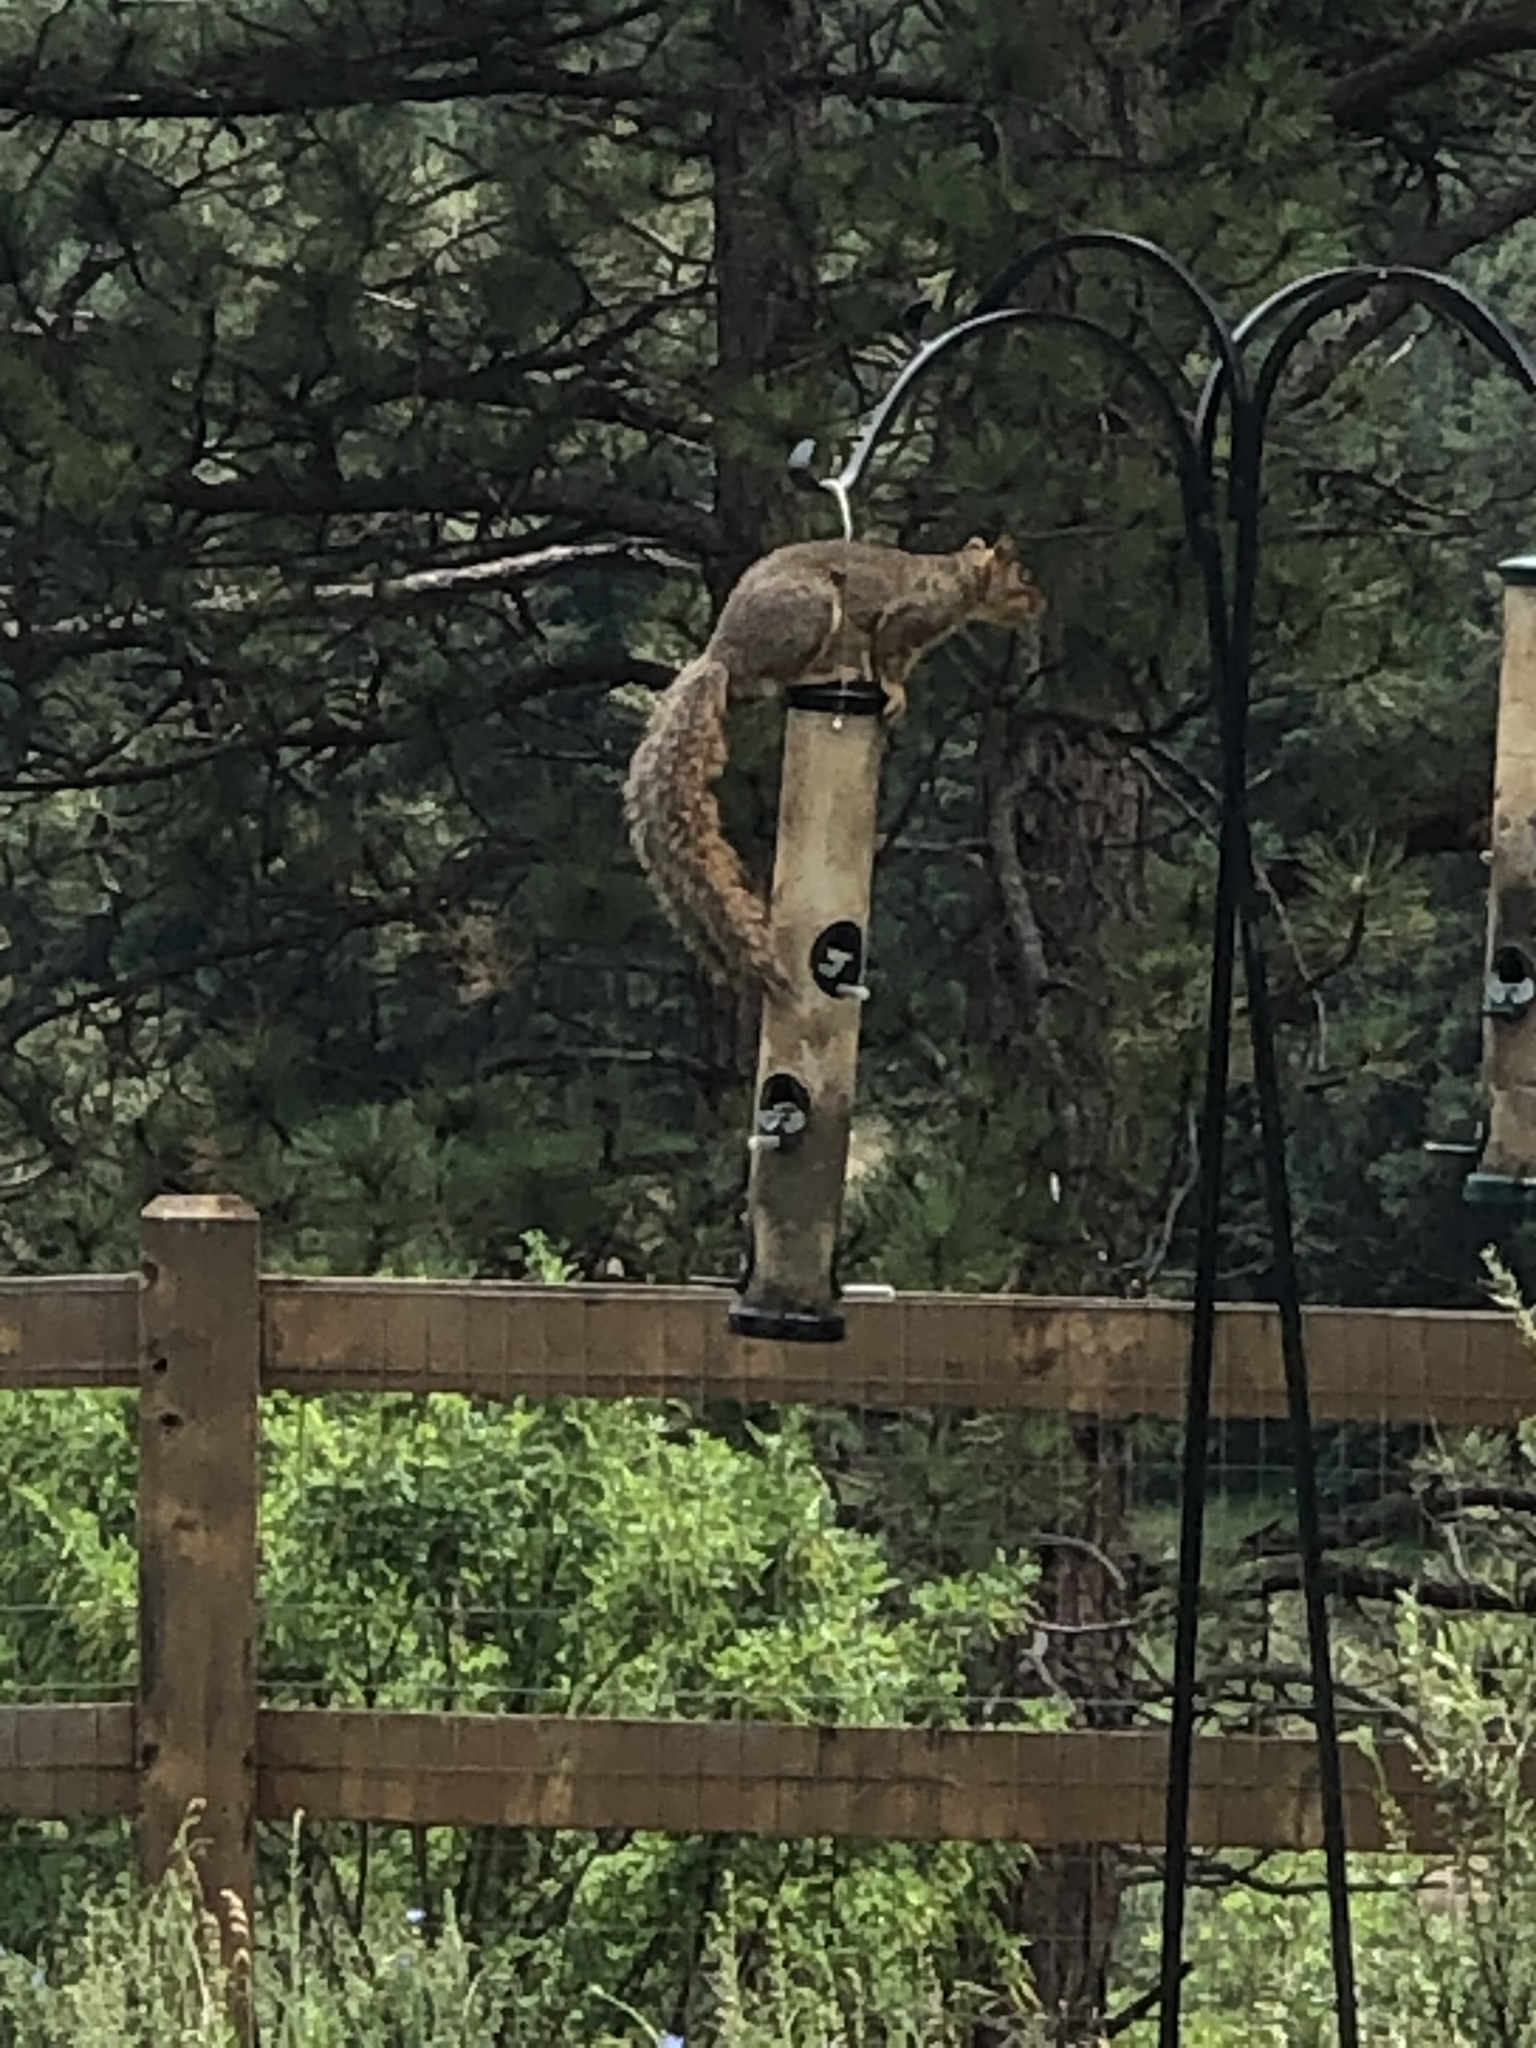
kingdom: Animalia
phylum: Chordata
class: Mammalia
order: Rodentia
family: Sciuridae
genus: Sciurus
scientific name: Sciurus niger
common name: Fox squirrel
